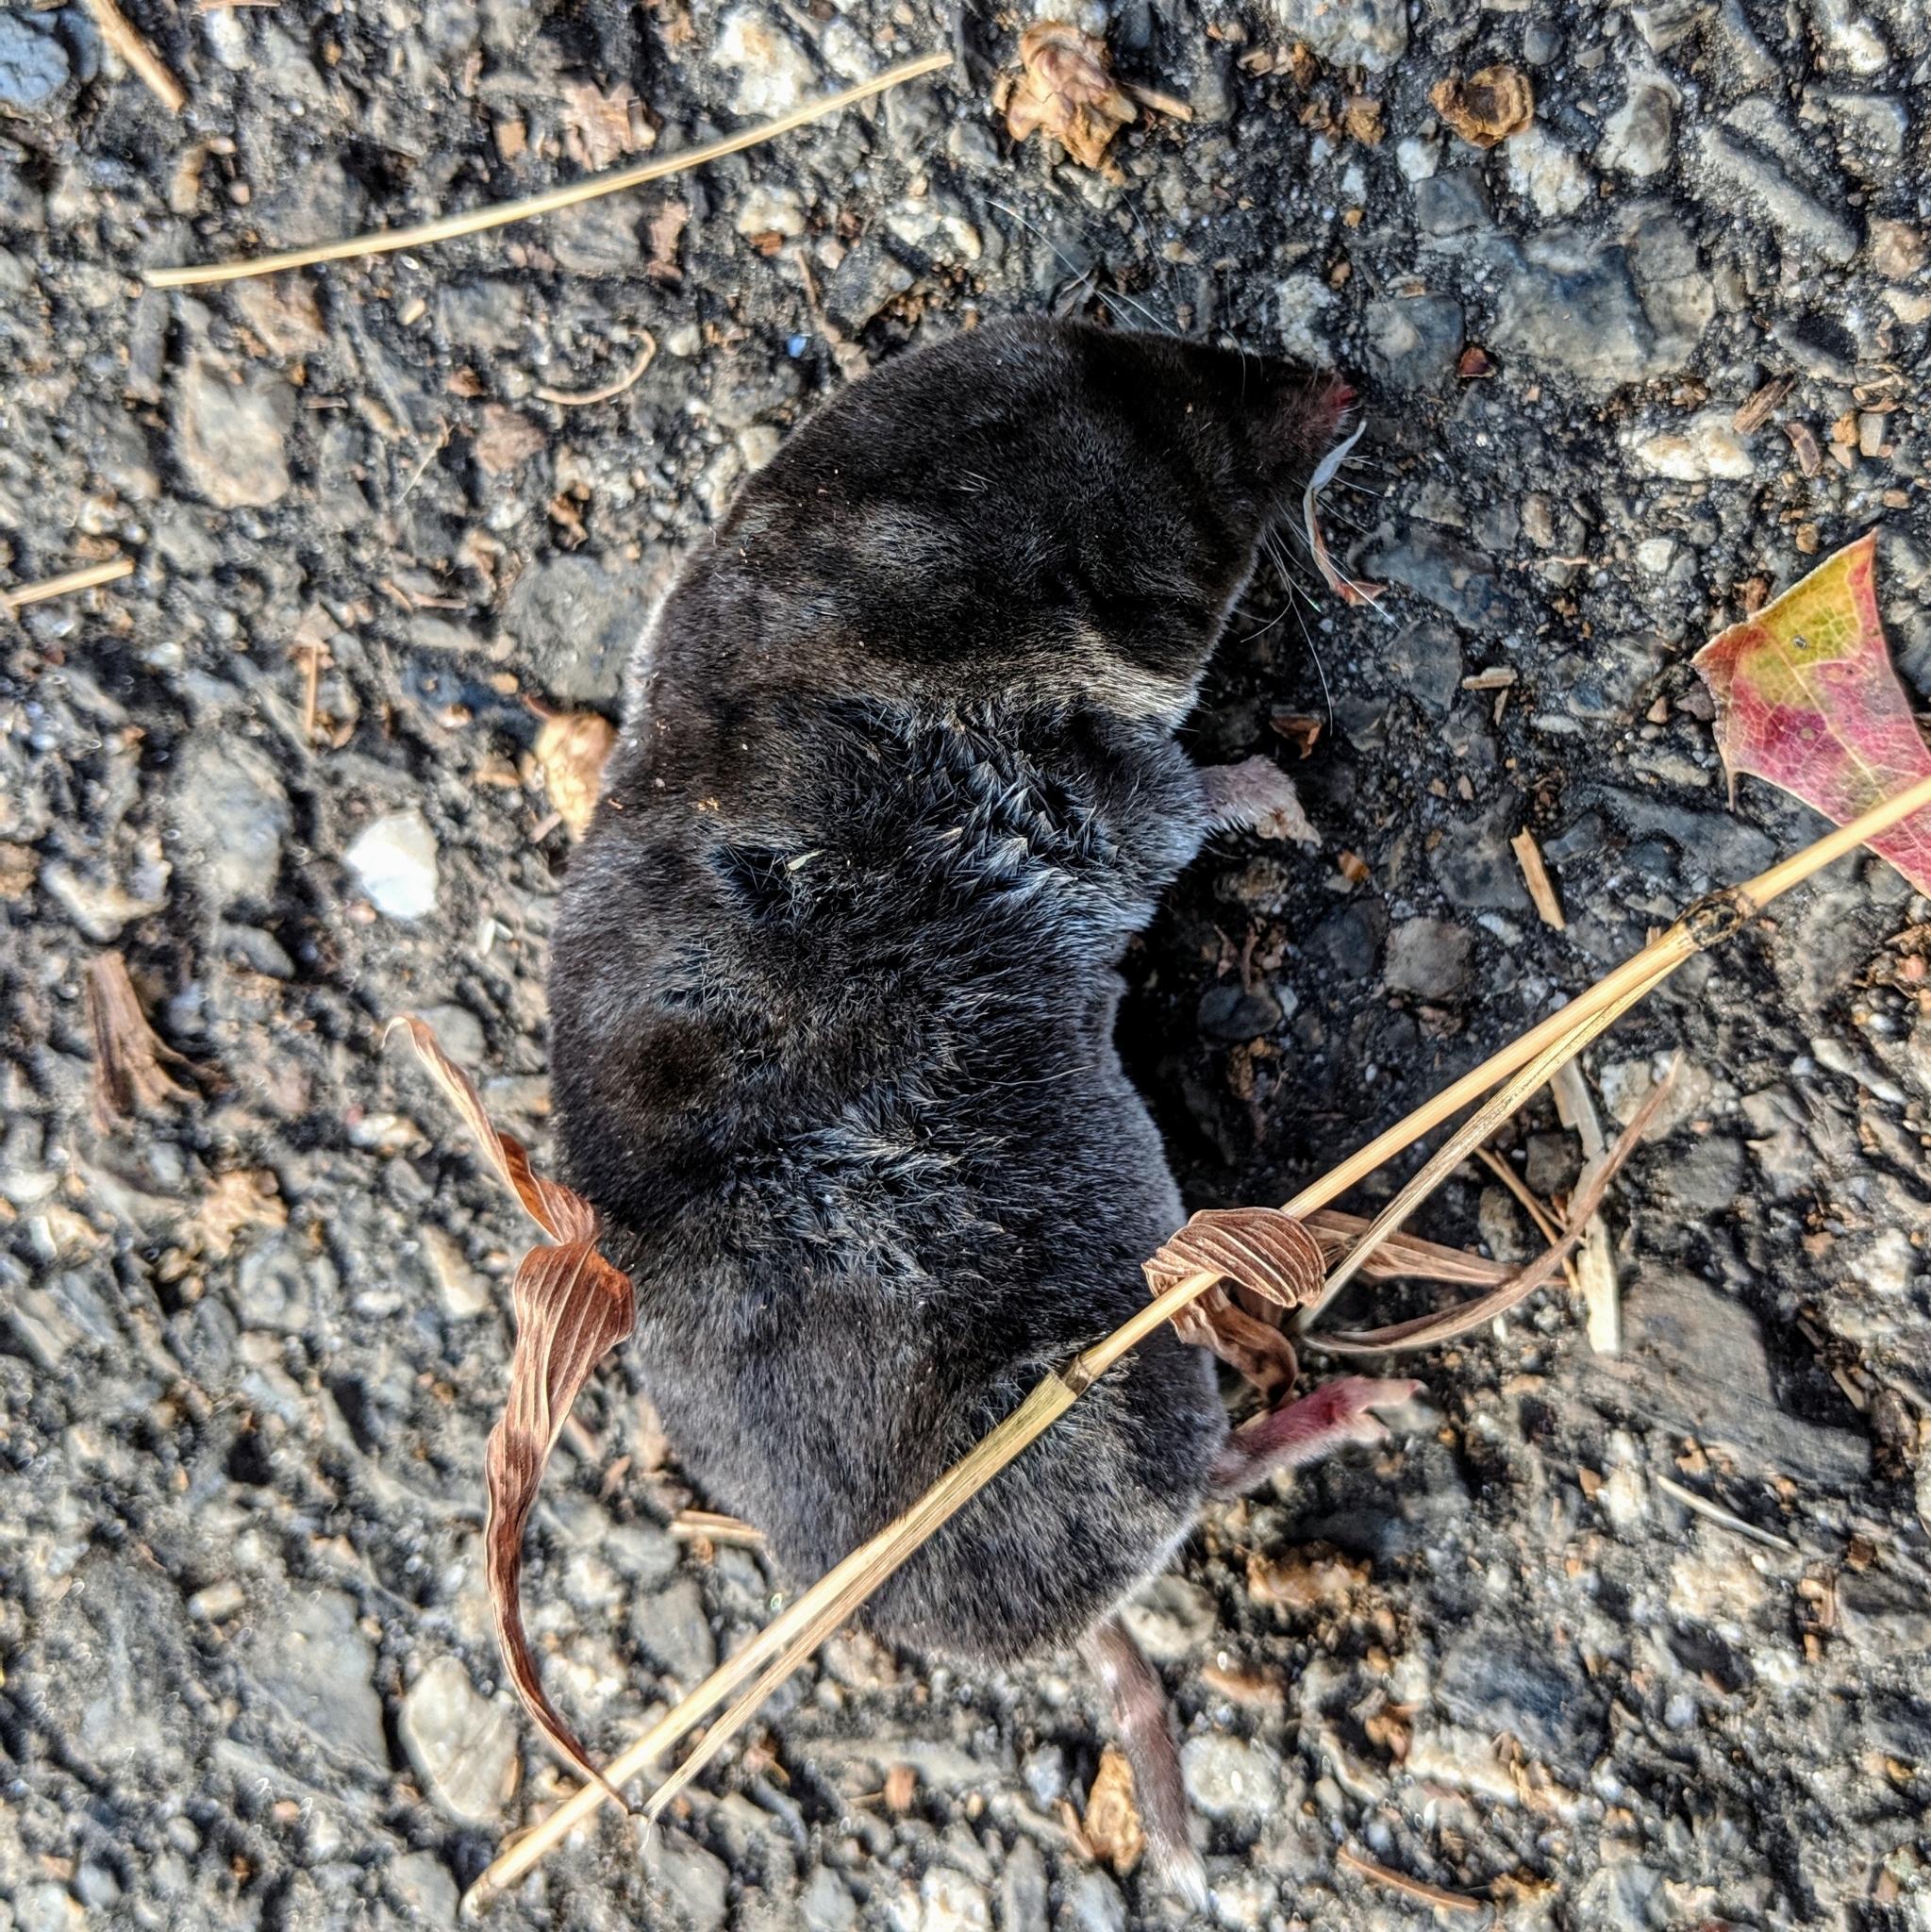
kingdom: Animalia
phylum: Chordata
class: Mammalia
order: Soricomorpha
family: Soricidae
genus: Blarina
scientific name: Blarina brevicauda
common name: Northern short-tailed shrew
